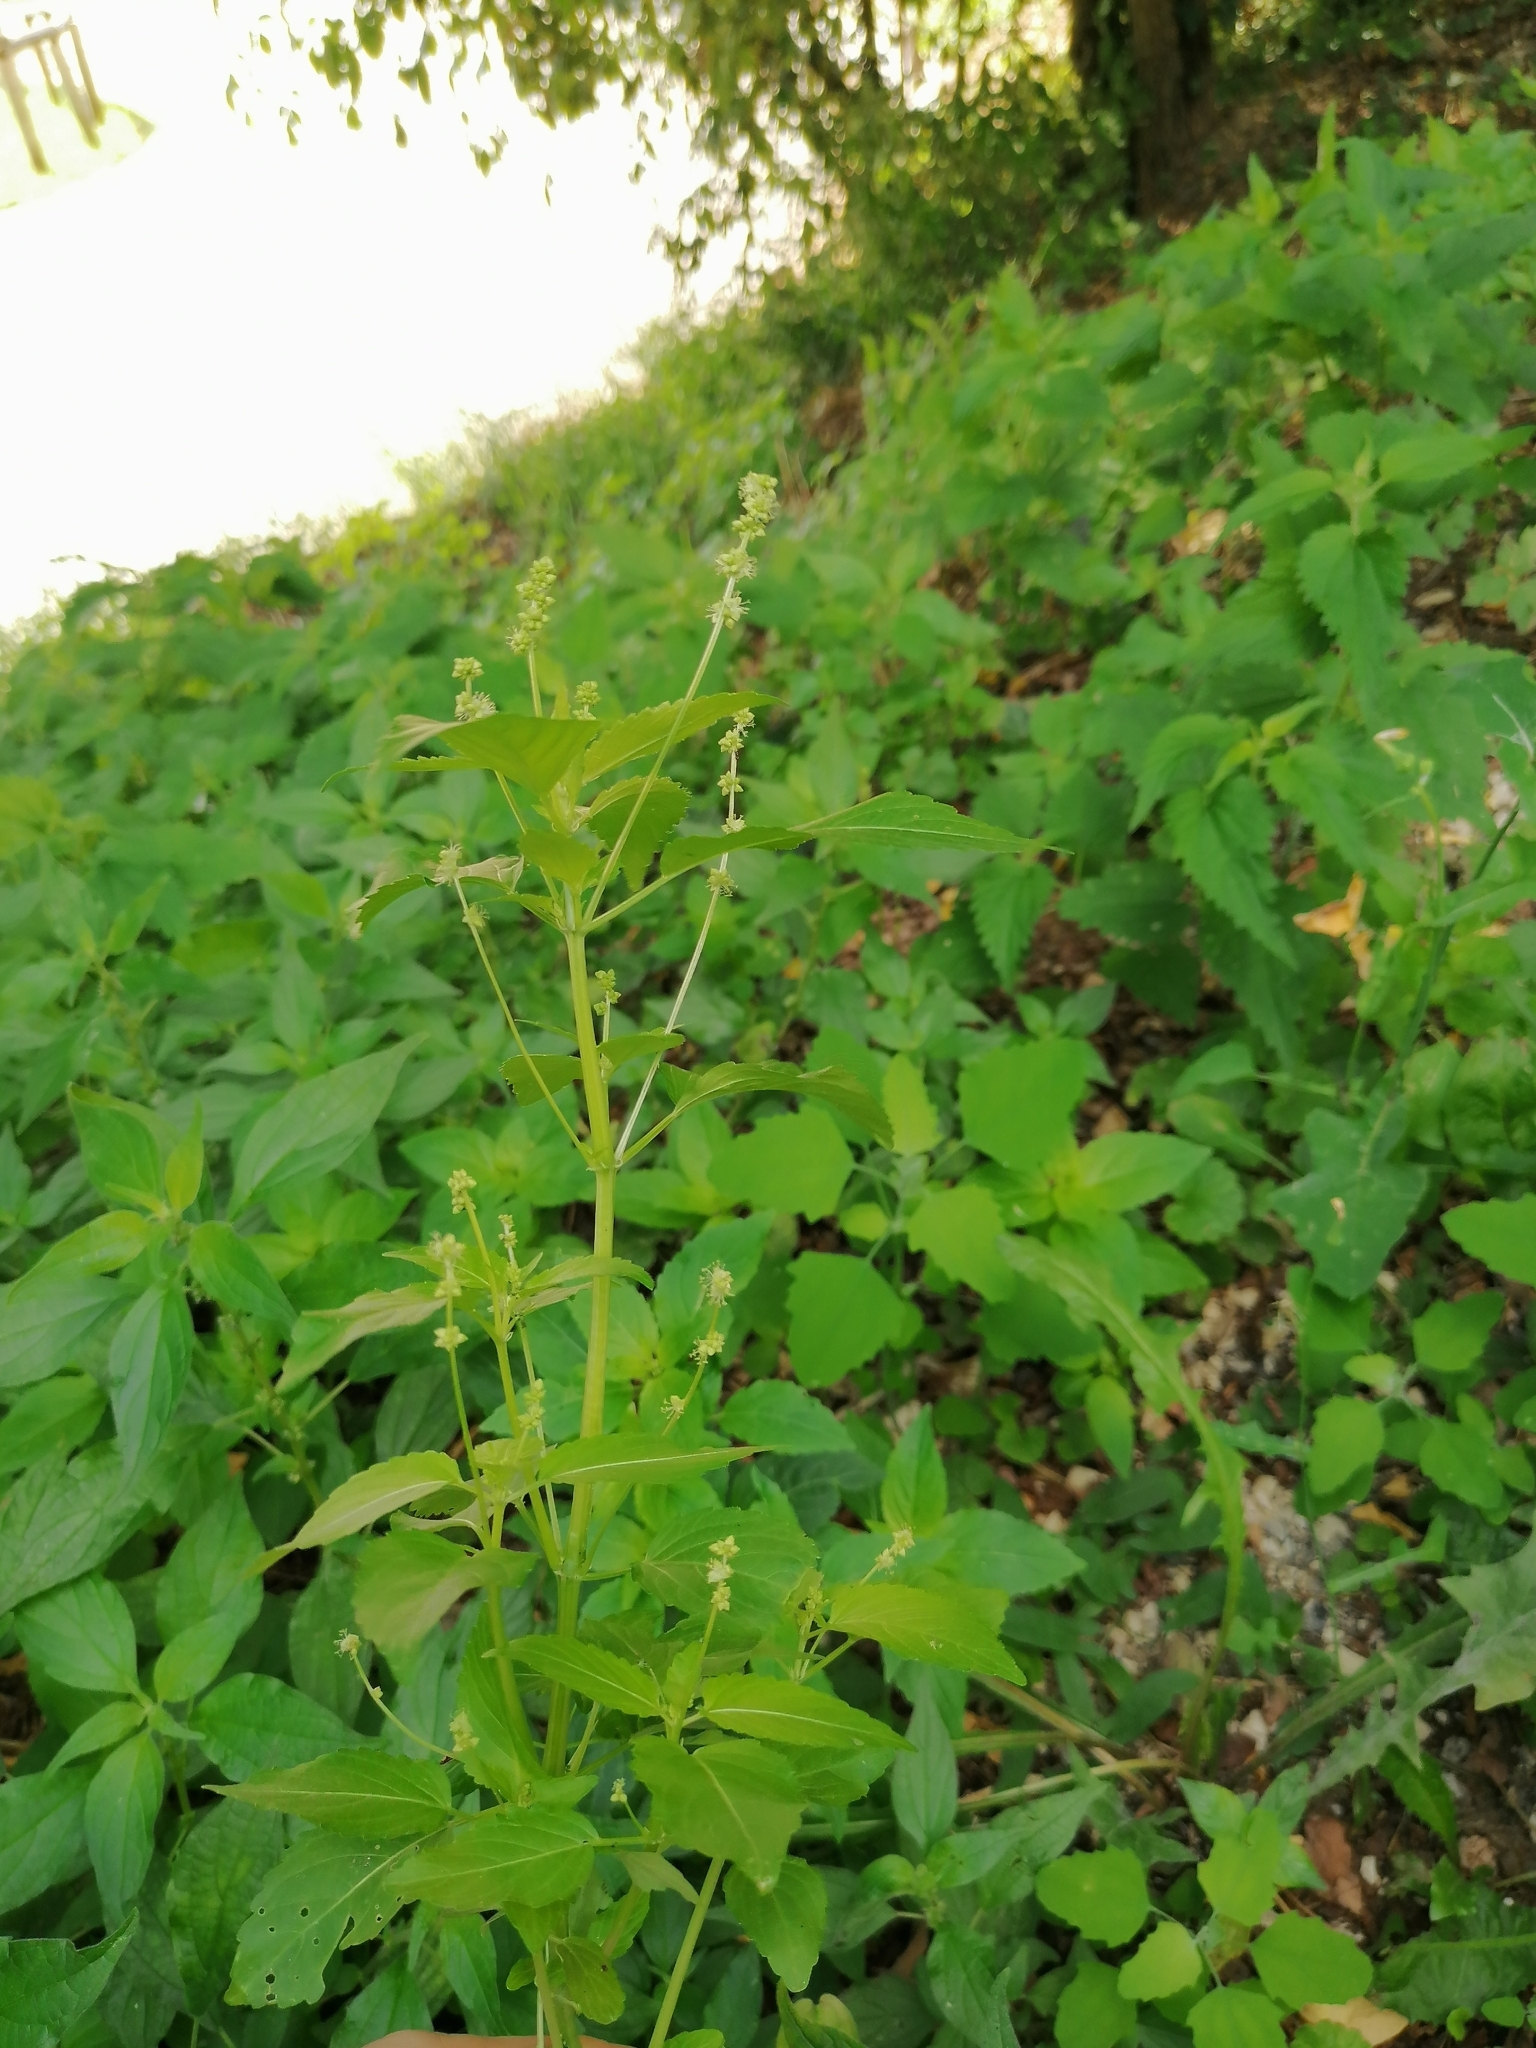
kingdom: Plantae
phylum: Tracheophyta
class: Magnoliopsida
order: Malpighiales
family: Euphorbiaceae
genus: Mercurialis
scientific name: Mercurialis annua
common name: Annual mercury
